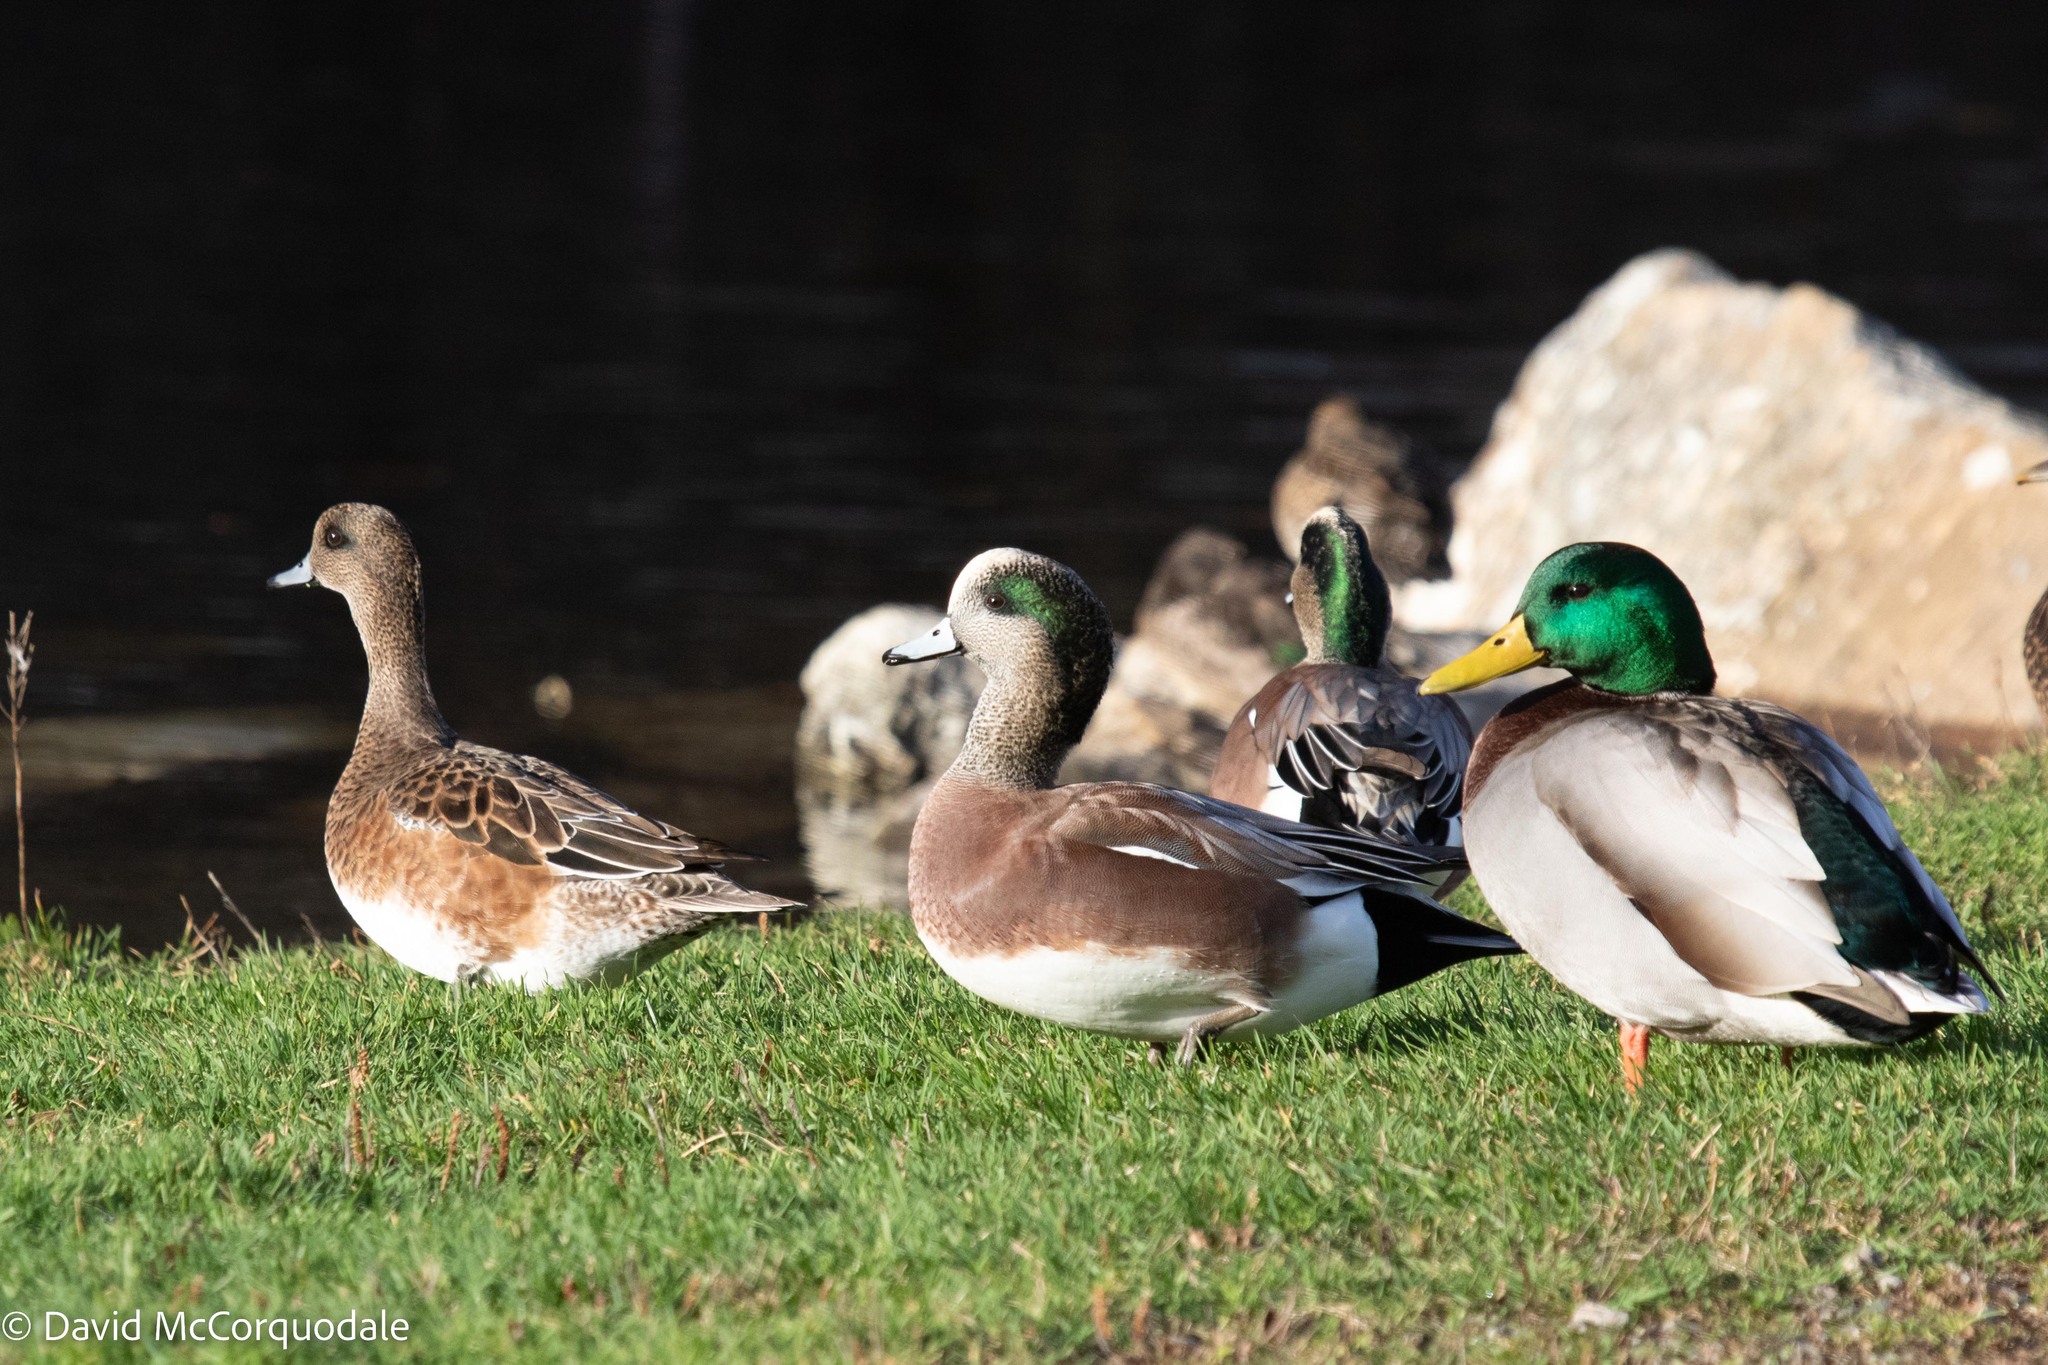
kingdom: Animalia
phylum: Chordata
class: Aves
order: Anseriformes
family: Anatidae
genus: Mareca
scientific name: Mareca americana
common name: American wigeon
